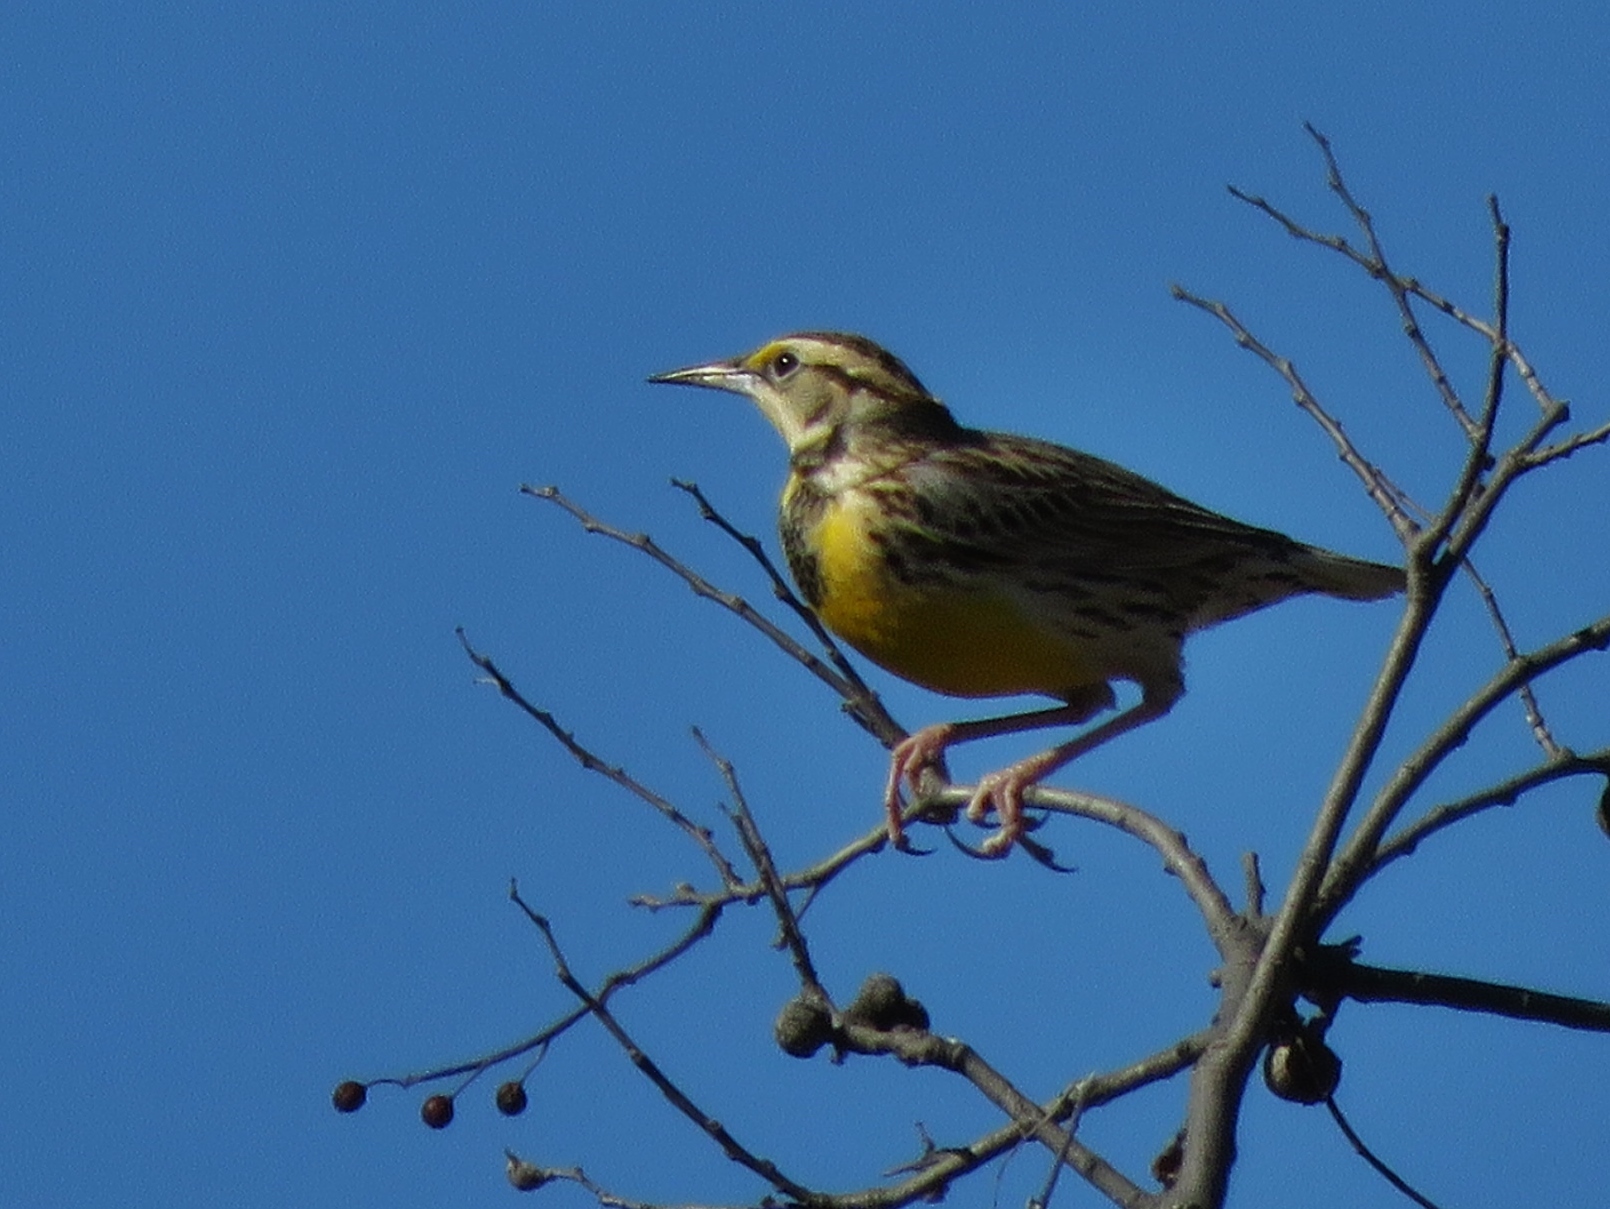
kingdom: Animalia
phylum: Chordata
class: Aves
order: Passeriformes
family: Icteridae
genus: Sturnella
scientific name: Sturnella magna
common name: Eastern meadowlark
